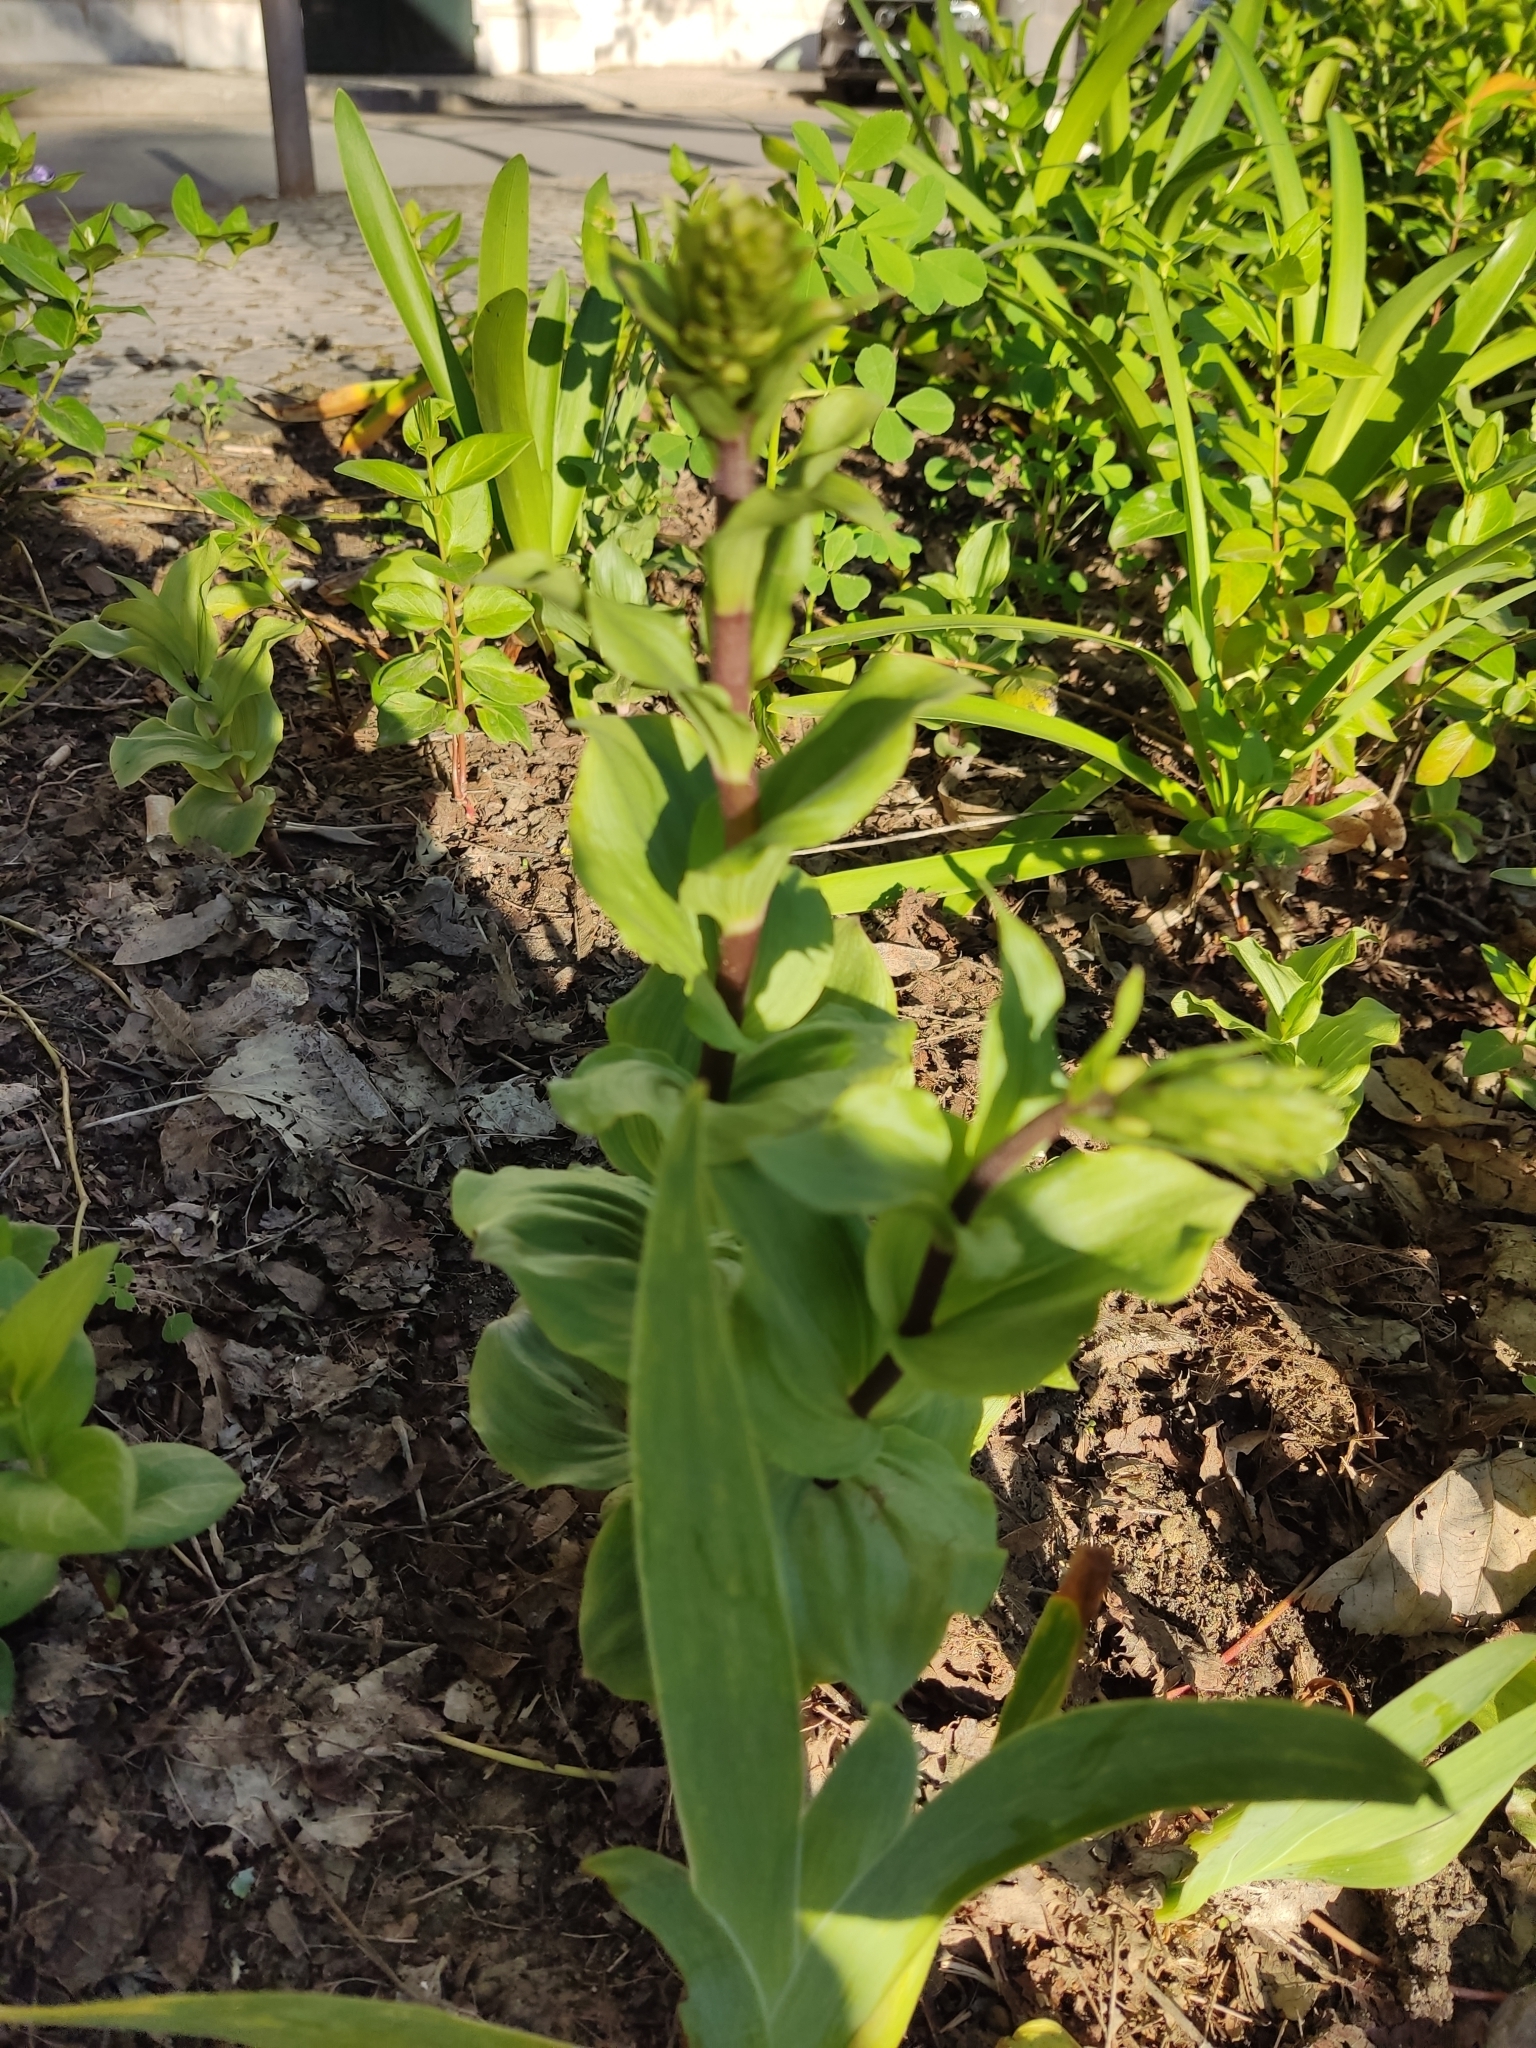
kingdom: Plantae
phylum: Tracheophyta
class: Liliopsida
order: Asparagales
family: Orchidaceae
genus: Epipactis
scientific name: Epipactis helleborine
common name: Broad-leaved helleborine
